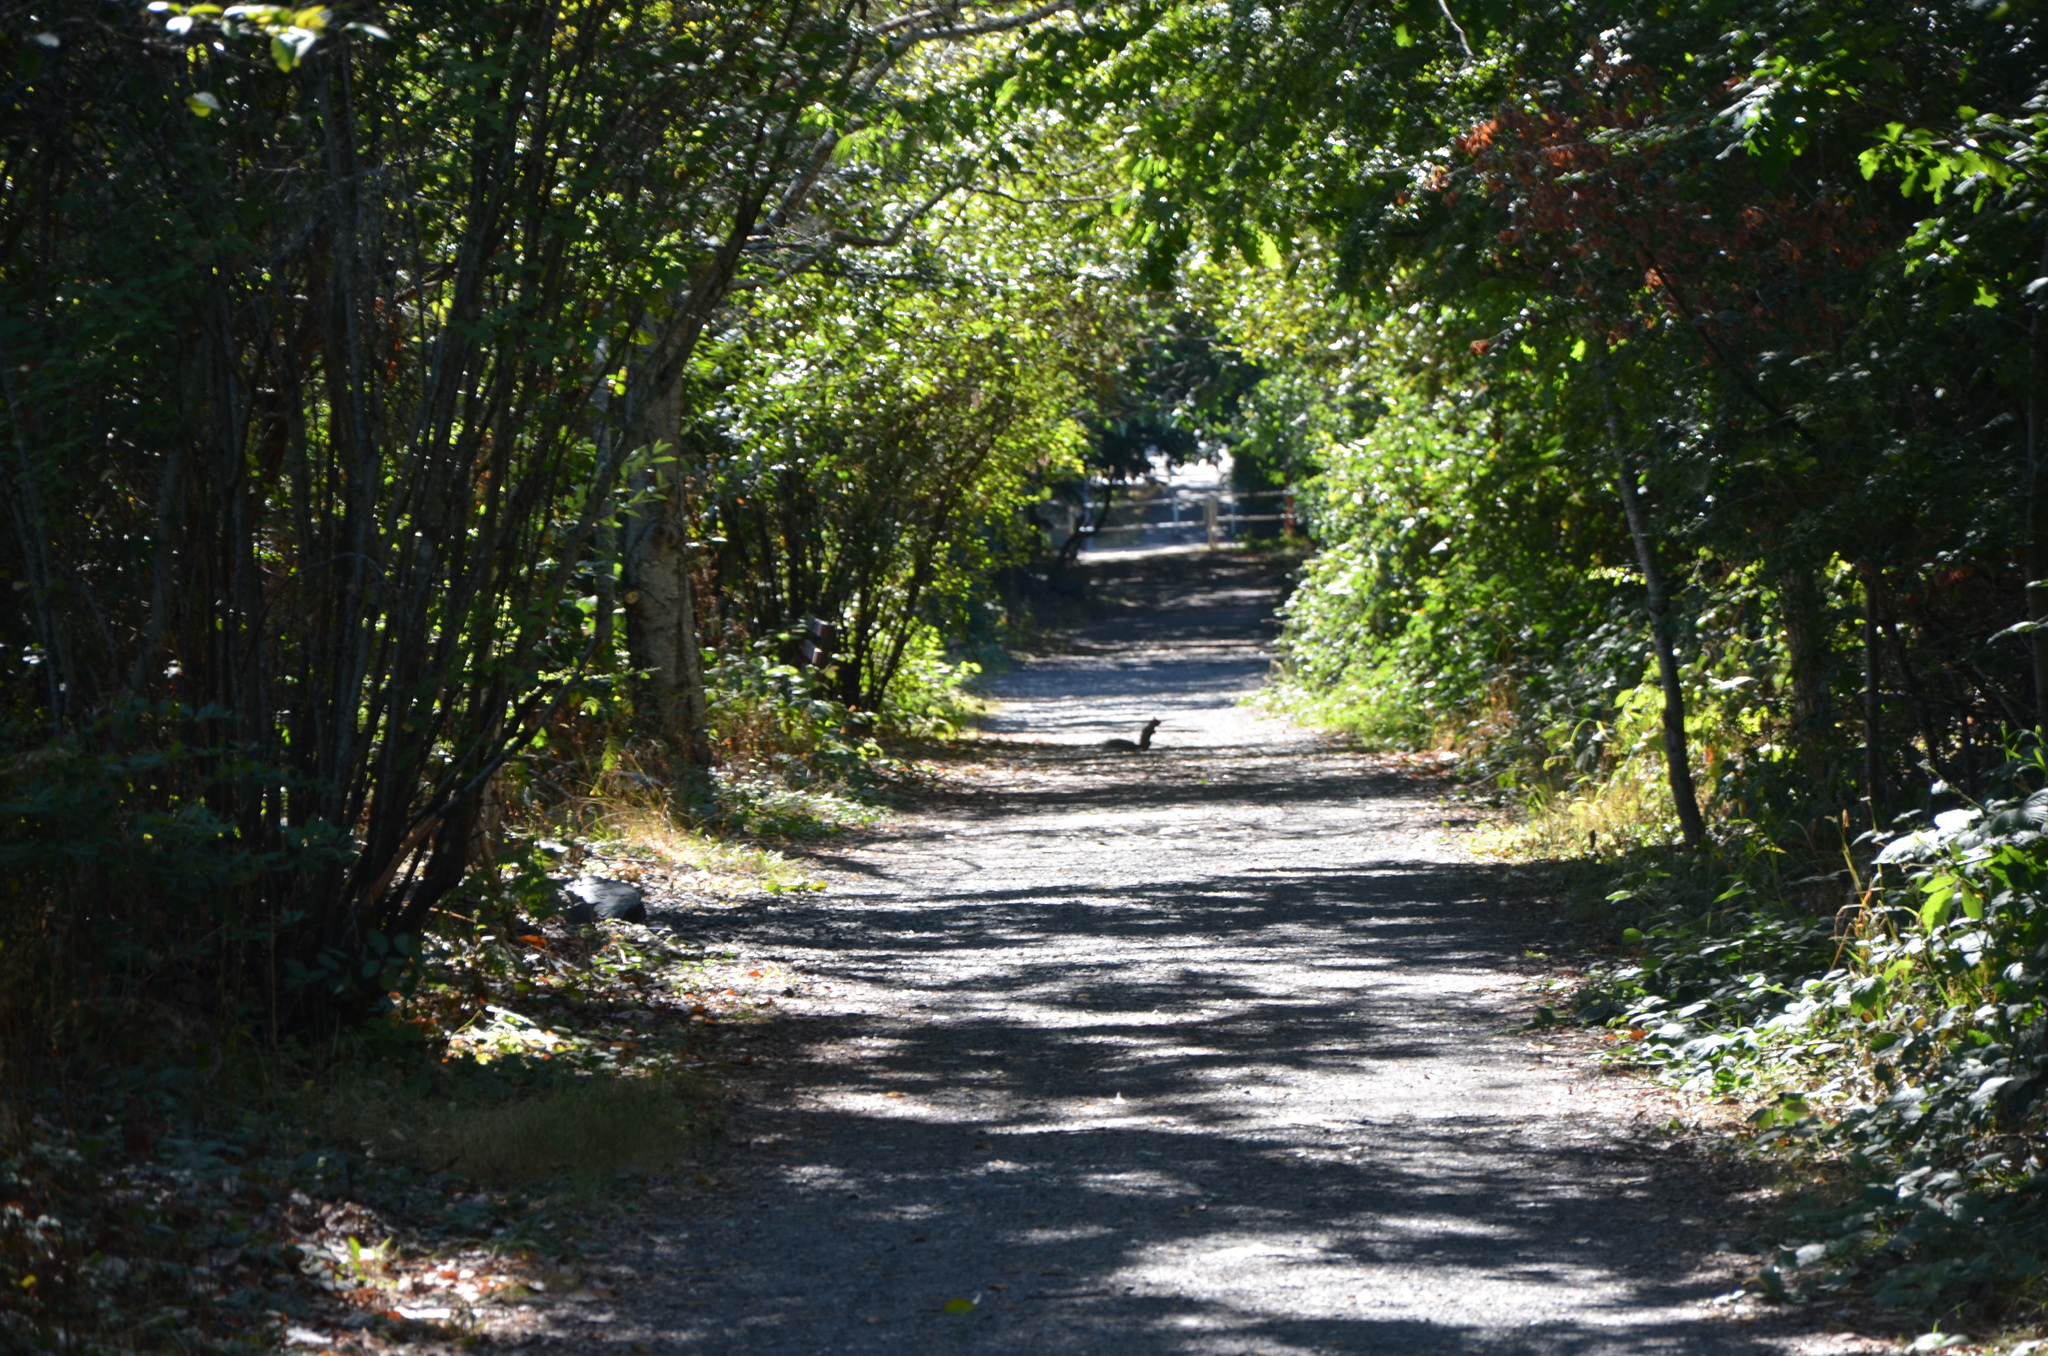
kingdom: Animalia
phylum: Chordata
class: Mammalia
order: Rodentia
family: Sciuridae
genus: Sciurus
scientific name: Sciurus carolinensis
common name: Eastern gray squirrel
